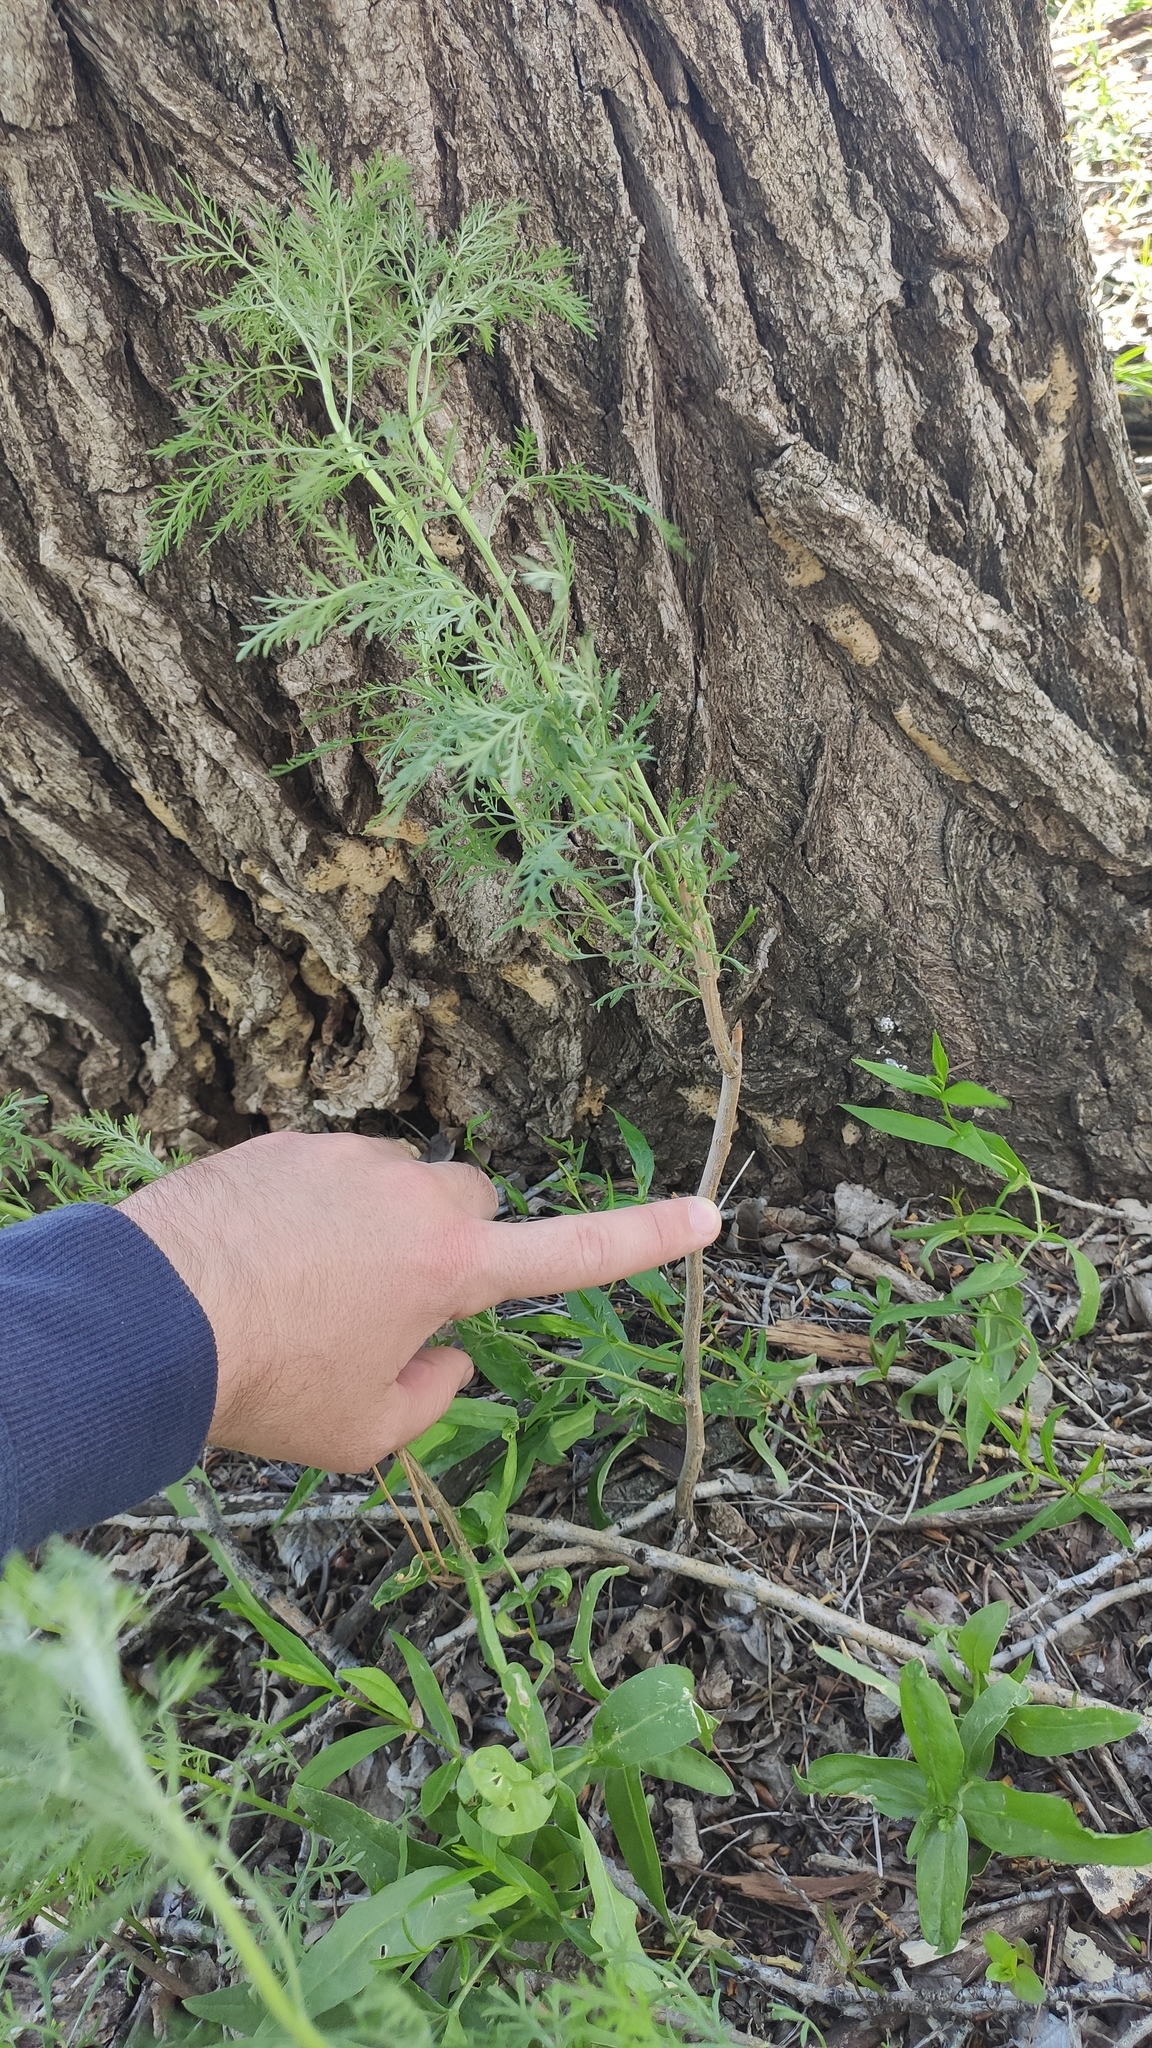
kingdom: Plantae
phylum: Tracheophyta
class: Magnoliopsida
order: Asterales
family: Asteraceae
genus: Artemisia
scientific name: Artemisia abrotanum
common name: Southernwood
